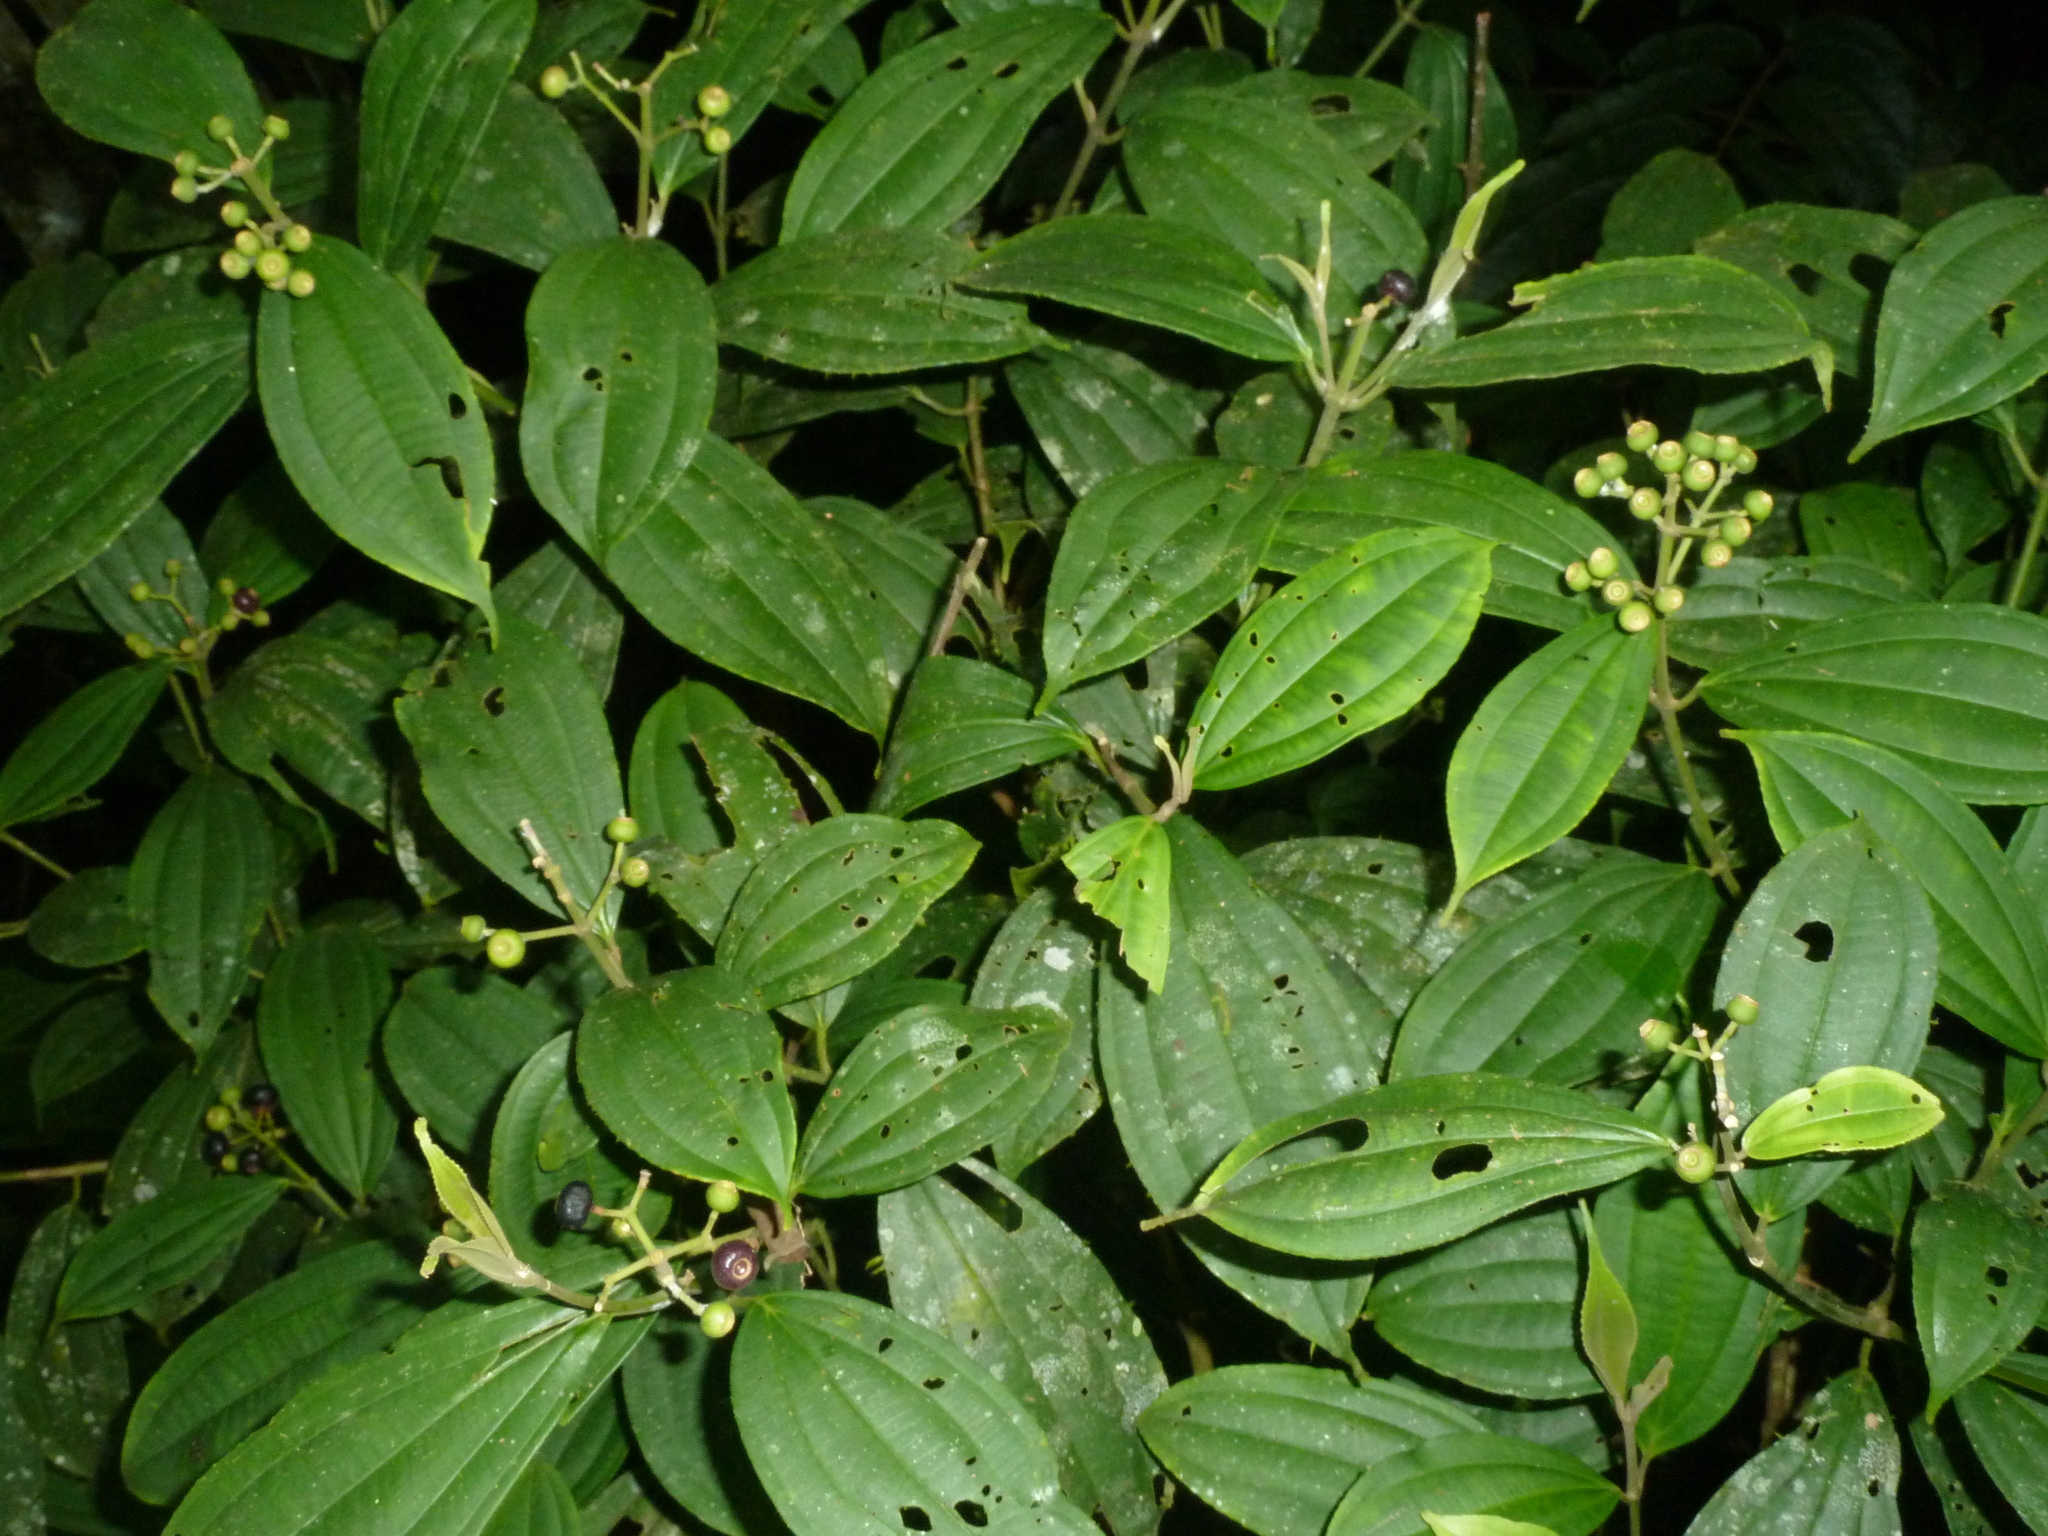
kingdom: Plantae
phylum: Tracheophyta
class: Magnoliopsida
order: Myrtales
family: Melastomataceae
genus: Miconia
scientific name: Miconia tenuifolia
